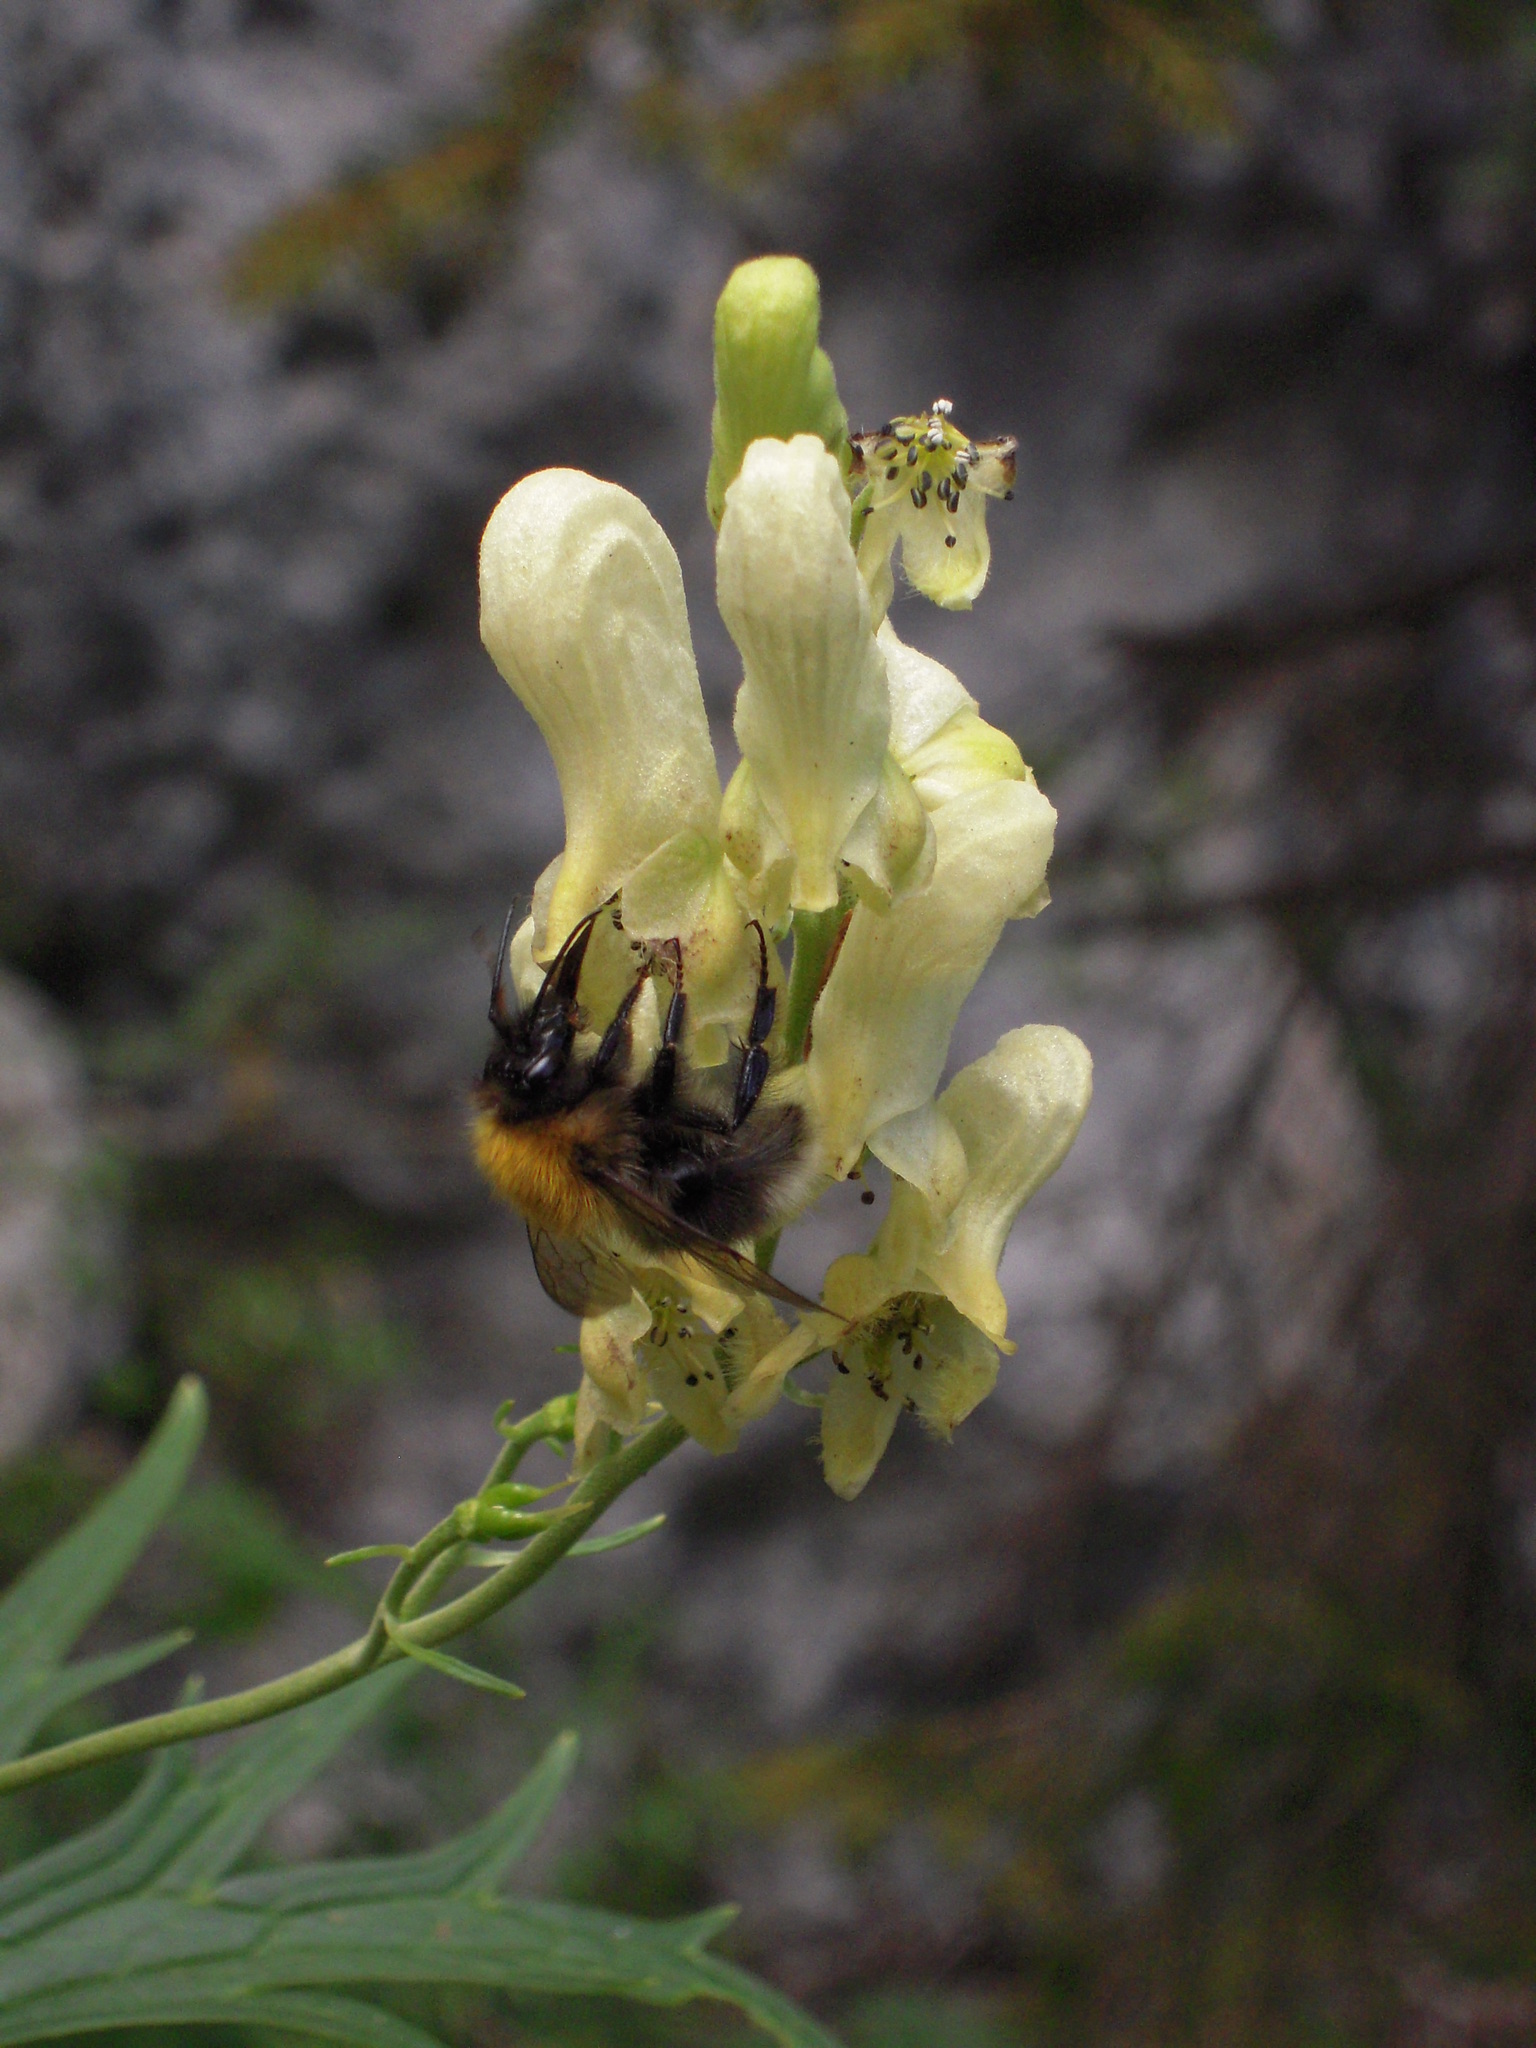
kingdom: Plantae
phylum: Tracheophyta
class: Magnoliopsida
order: Ranunculales
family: Ranunculaceae
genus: Aconitum
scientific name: Aconitum lycoctonum
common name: Wolf's-bane
